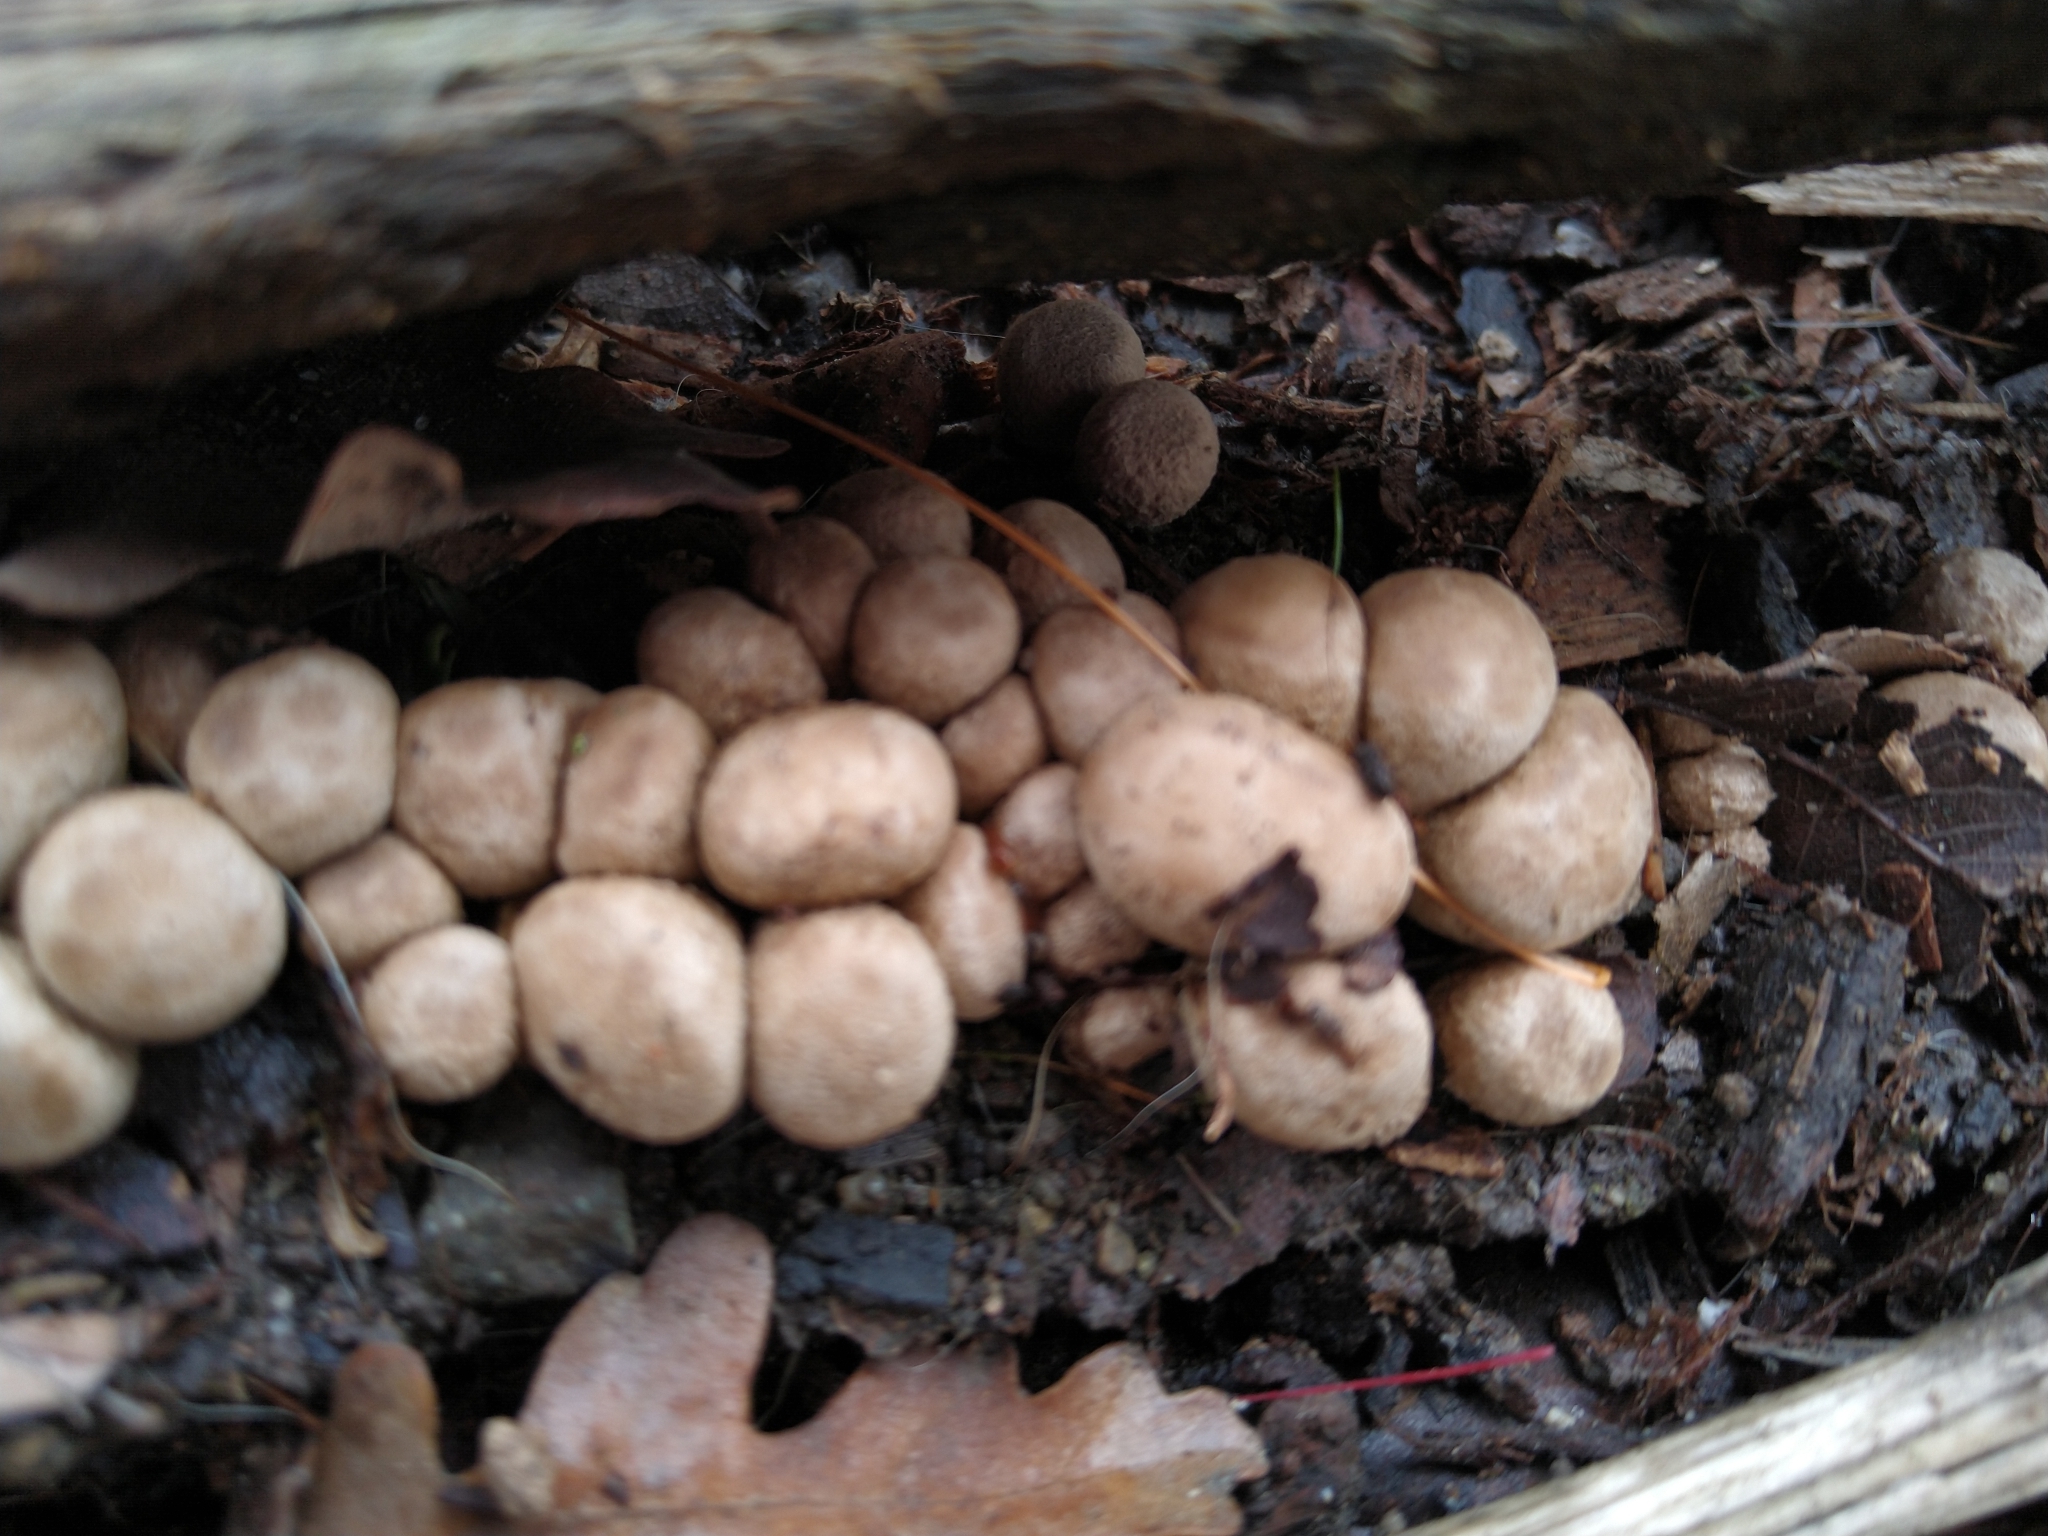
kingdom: Fungi
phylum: Basidiomycota
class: Agaricomycetes
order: Agaricales
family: Agaricaceae
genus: Cyathus
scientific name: Cyathus olla
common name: Field bird's nest
